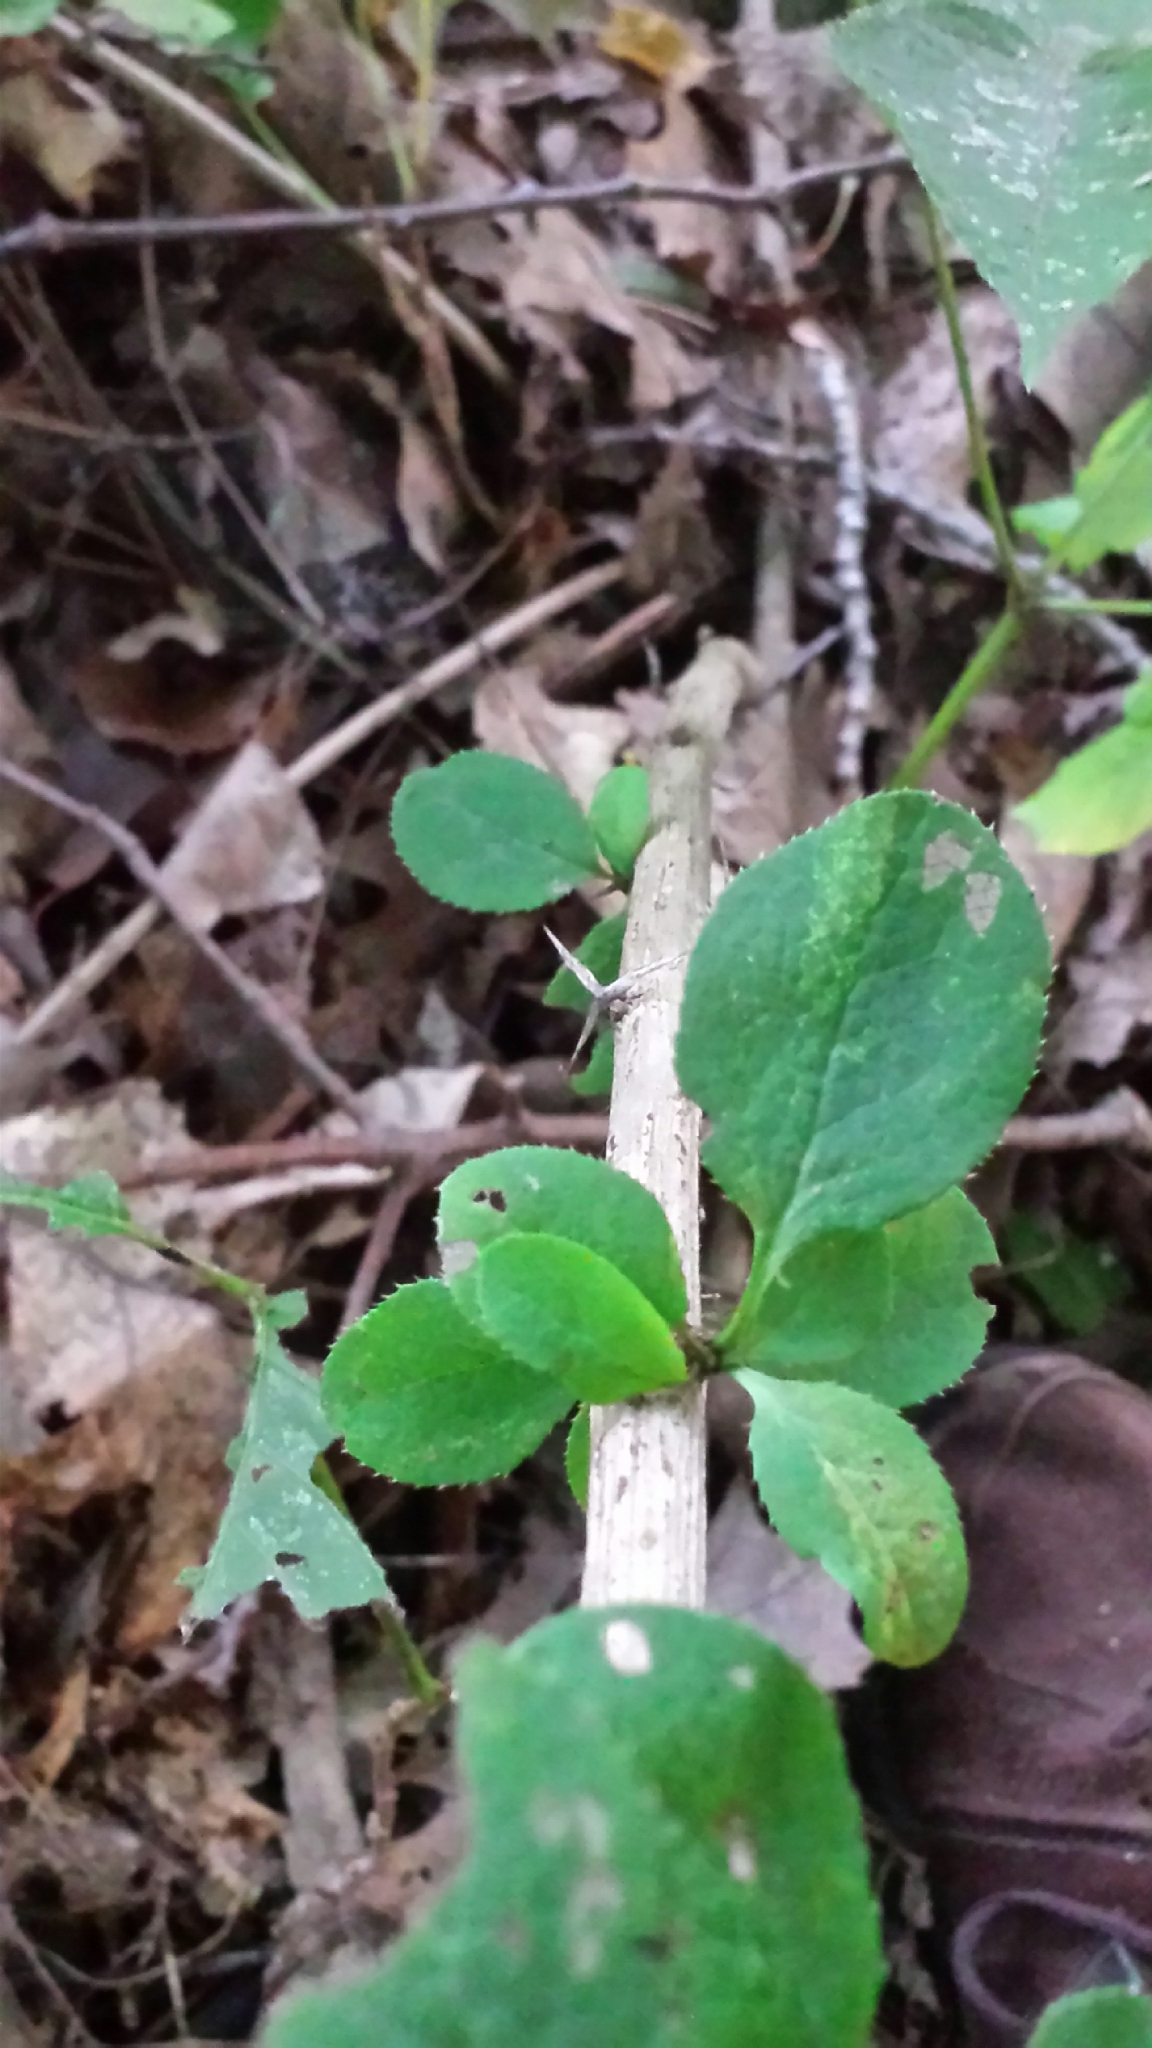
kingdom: Plantae
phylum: Tracheophyta
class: Magnoliopsida
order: Ranunculales
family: Berberidaceae
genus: Berberis
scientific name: Berberis vulgaris
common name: Barberry
